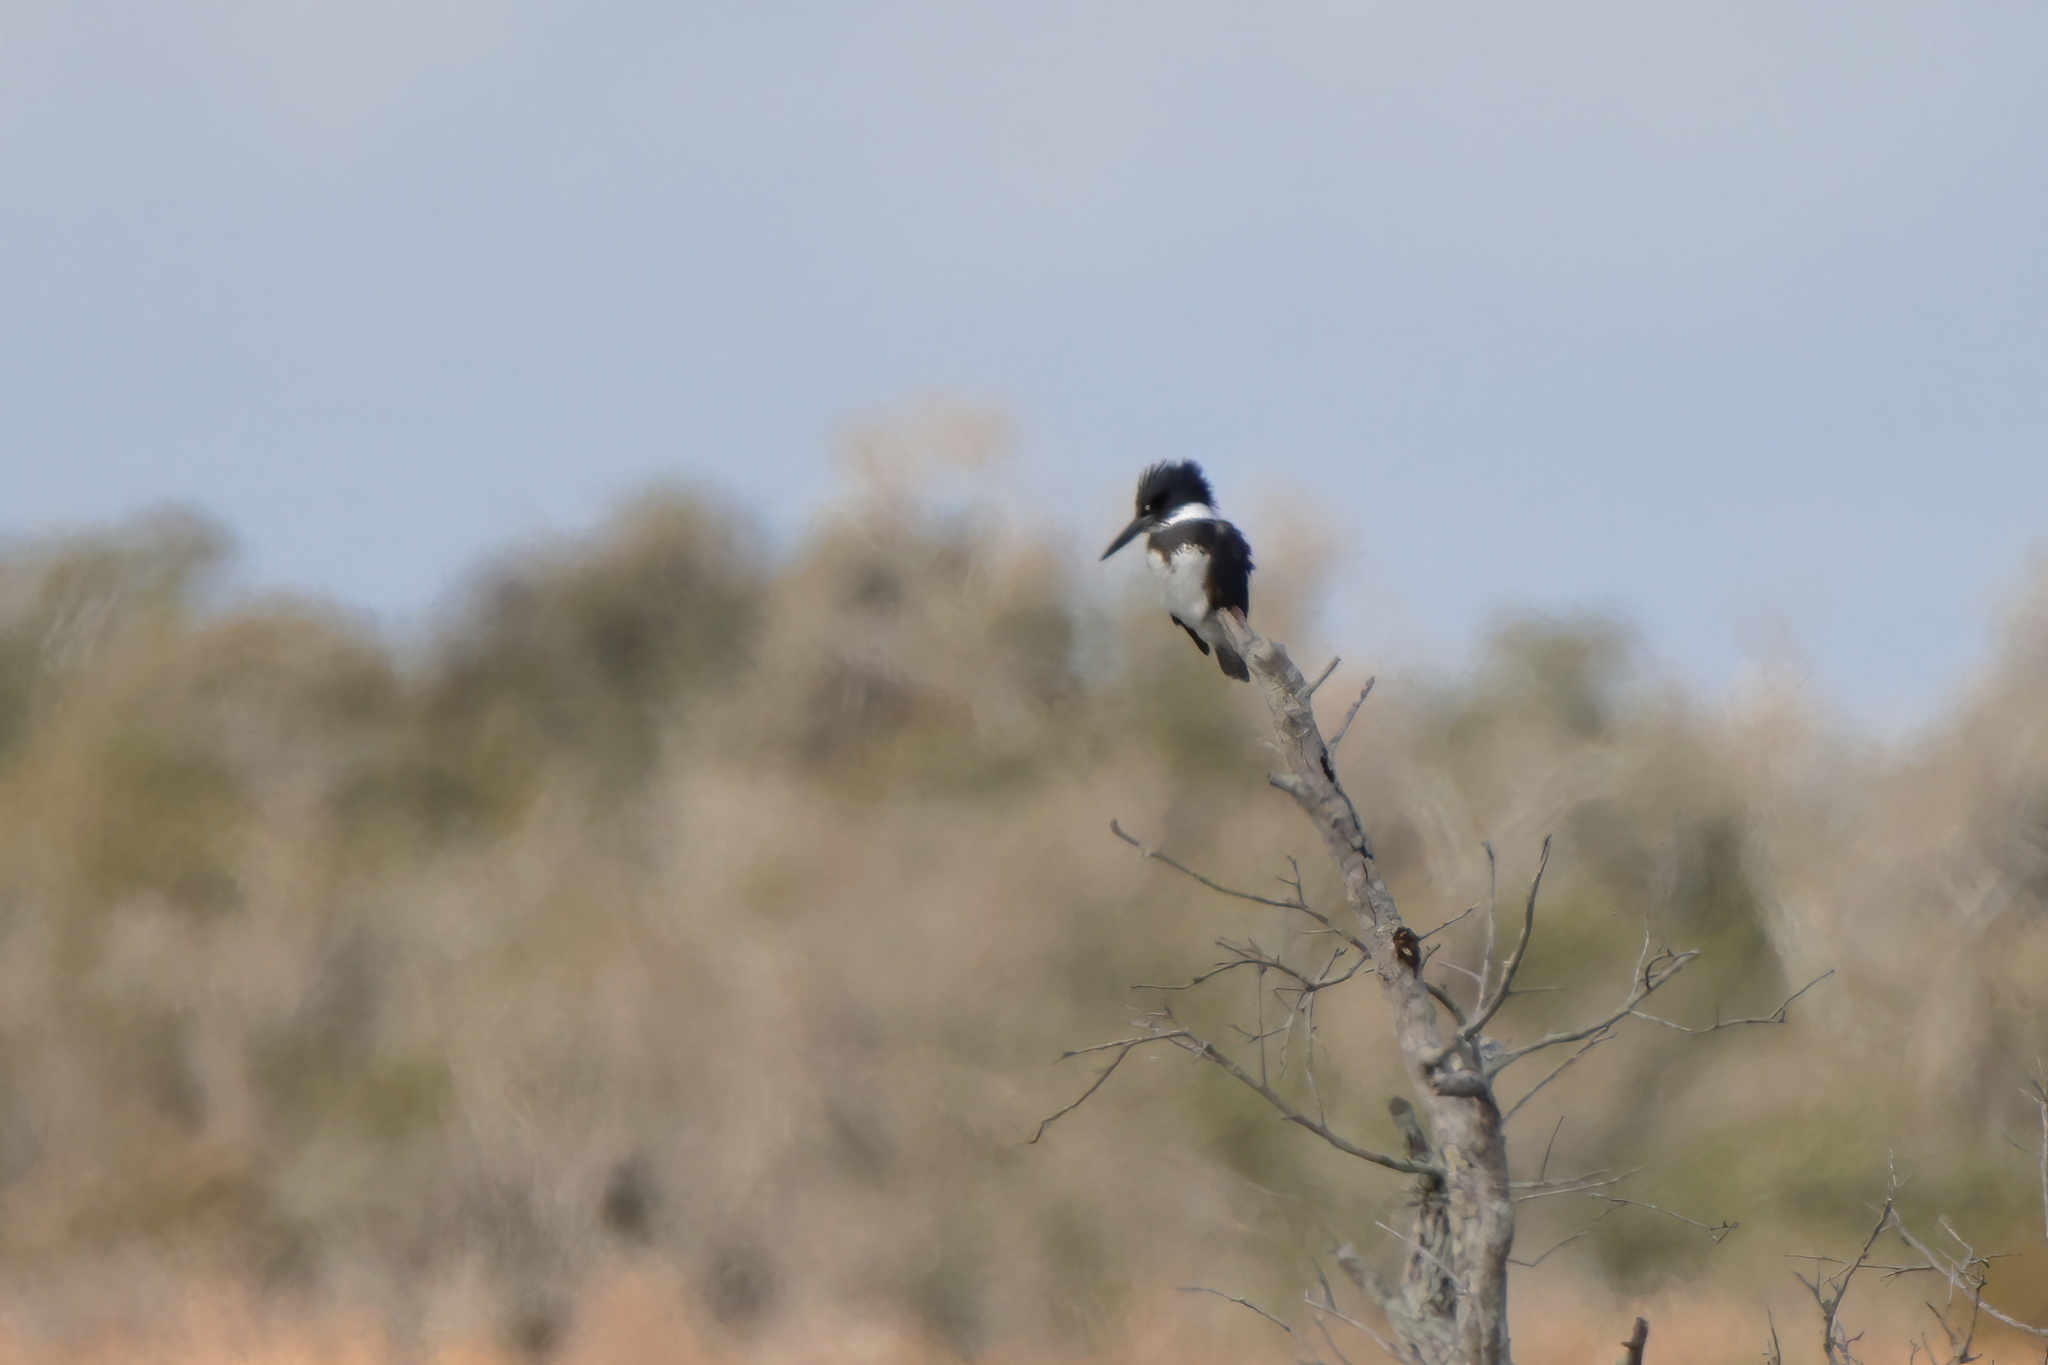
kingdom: Animalia
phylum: Chordata
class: Aves
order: Coraciiformes
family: Alcedinidae
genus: Megaceryle
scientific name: Megaceryle alcyon
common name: Belted kingfisher
